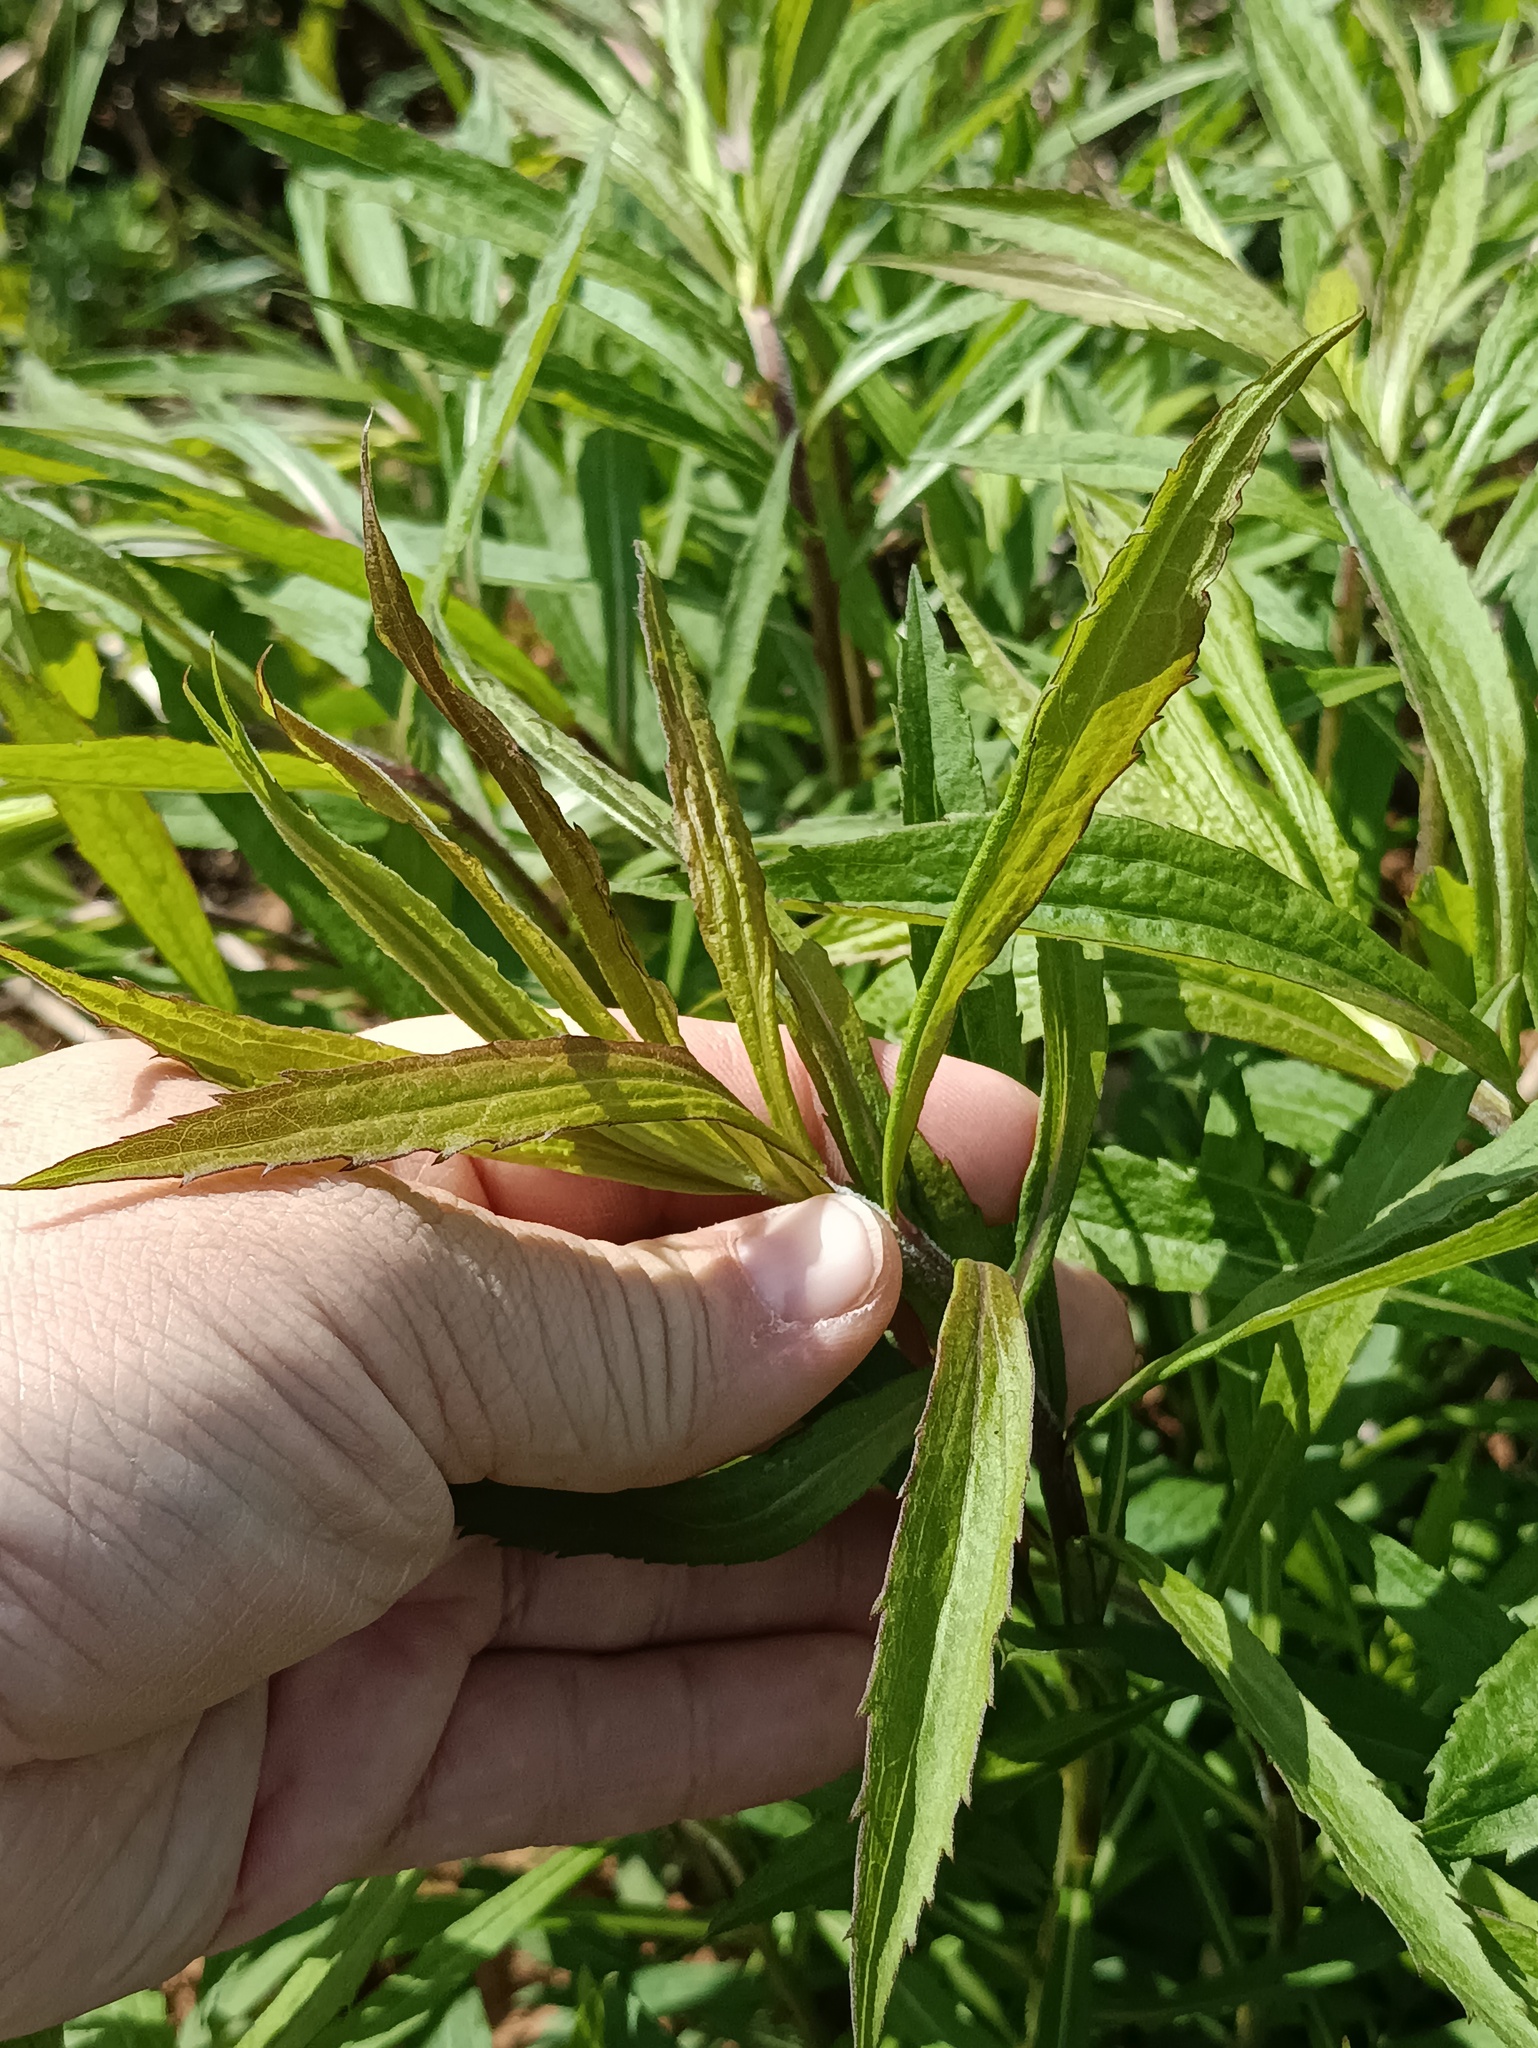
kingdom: Plantae
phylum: Tracheophyta
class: Magnoliopsida
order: Asterales
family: Asteraceae
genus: Solidago
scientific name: Solidago canadensis
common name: Canada goldenrod
